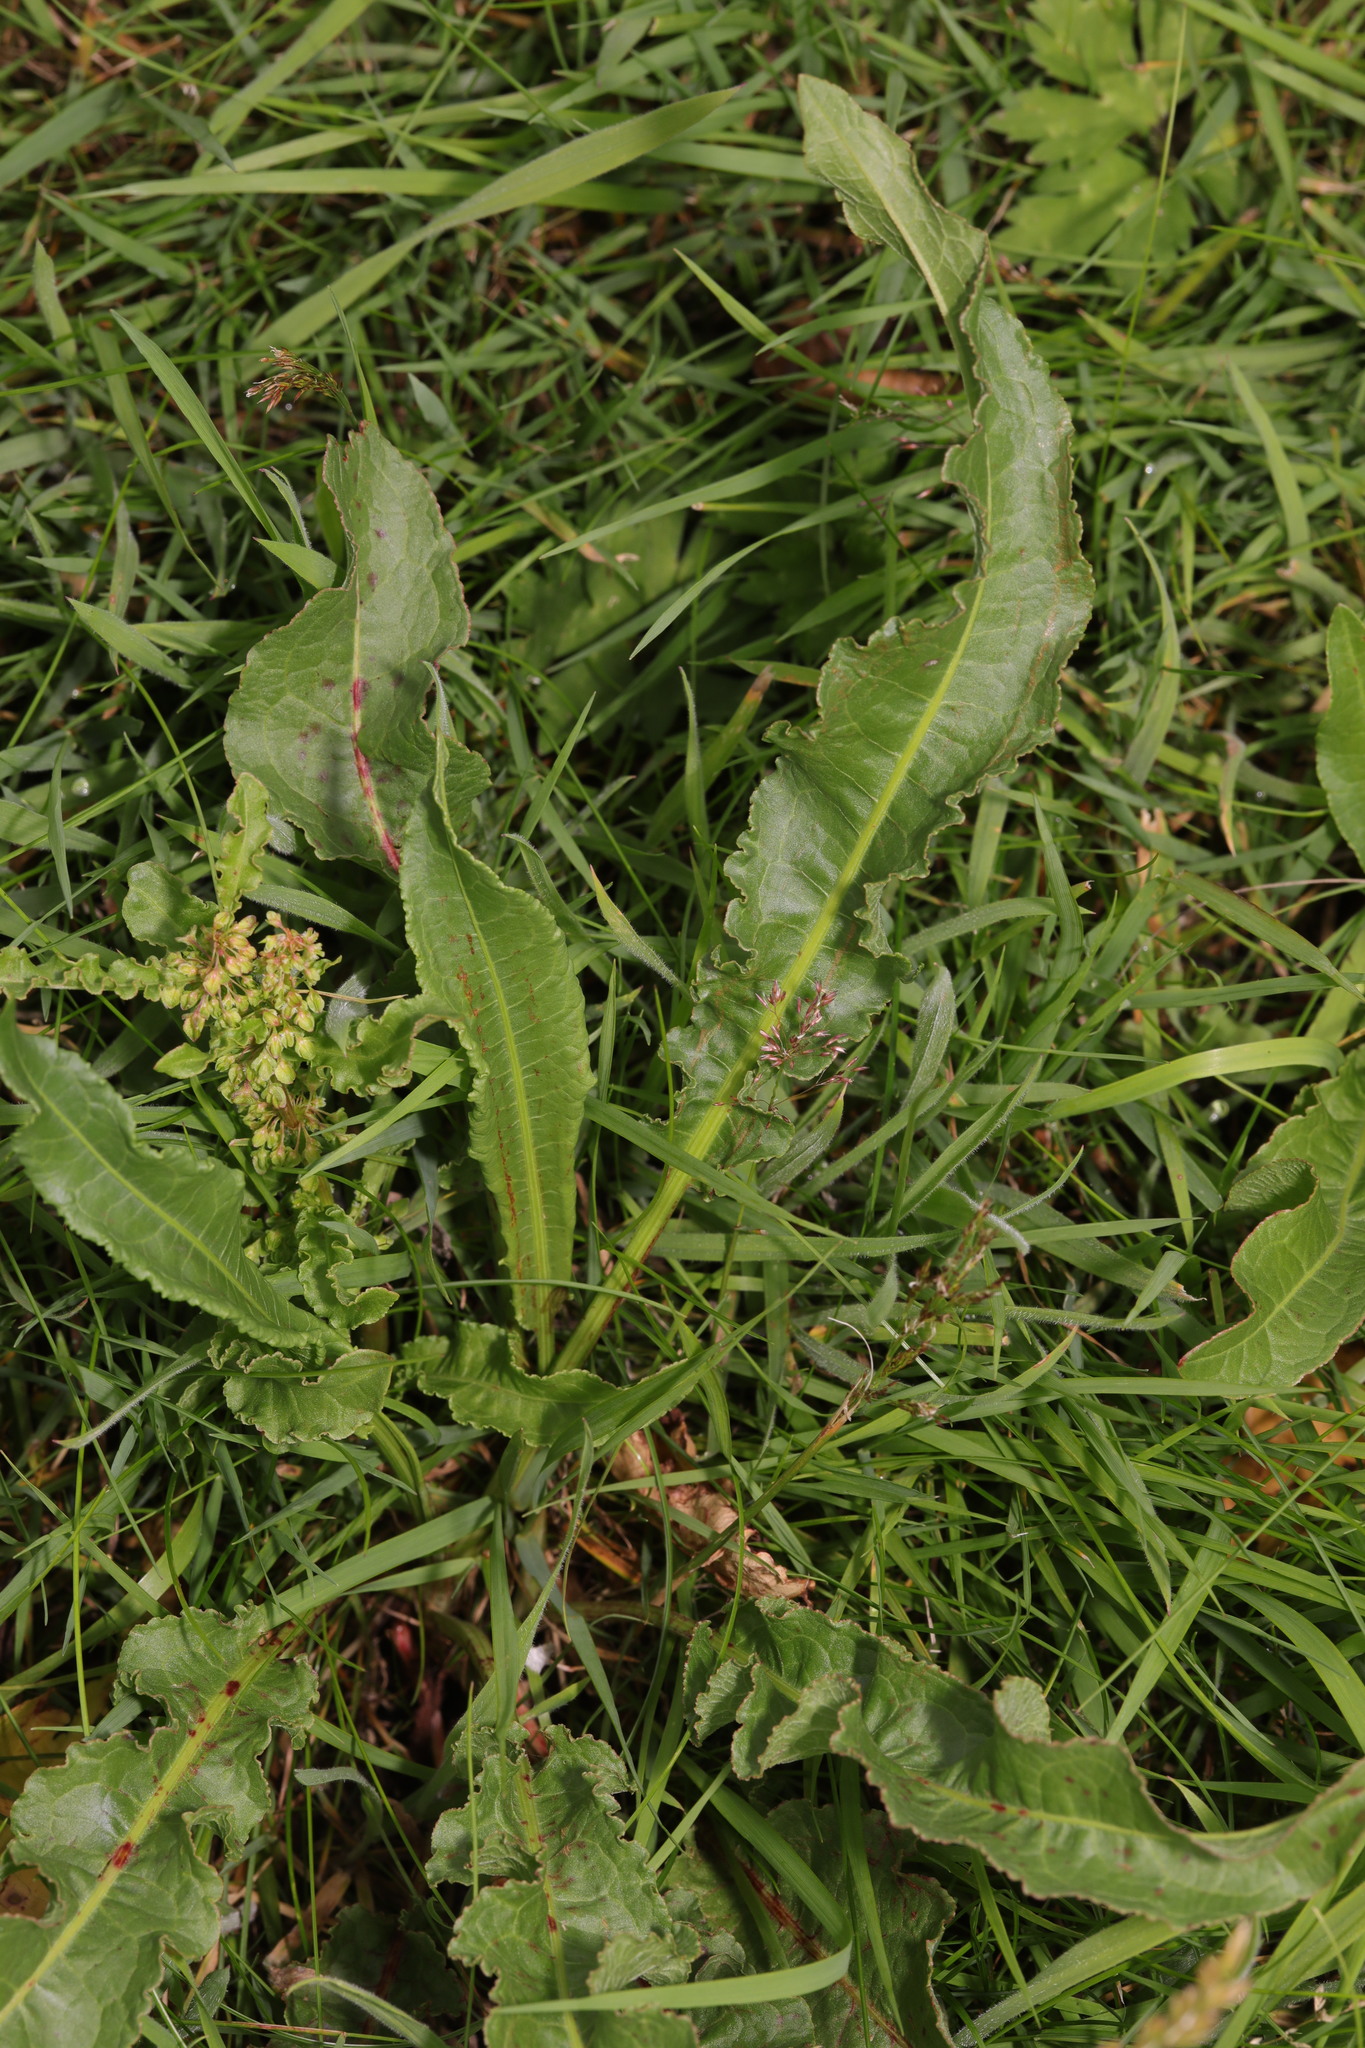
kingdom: Plantae
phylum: Tracheophyta
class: Magnoliopsida
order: Caryophyllales
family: Polygonaceae
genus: Rumex
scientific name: Rumex crispus
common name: Curled dock
